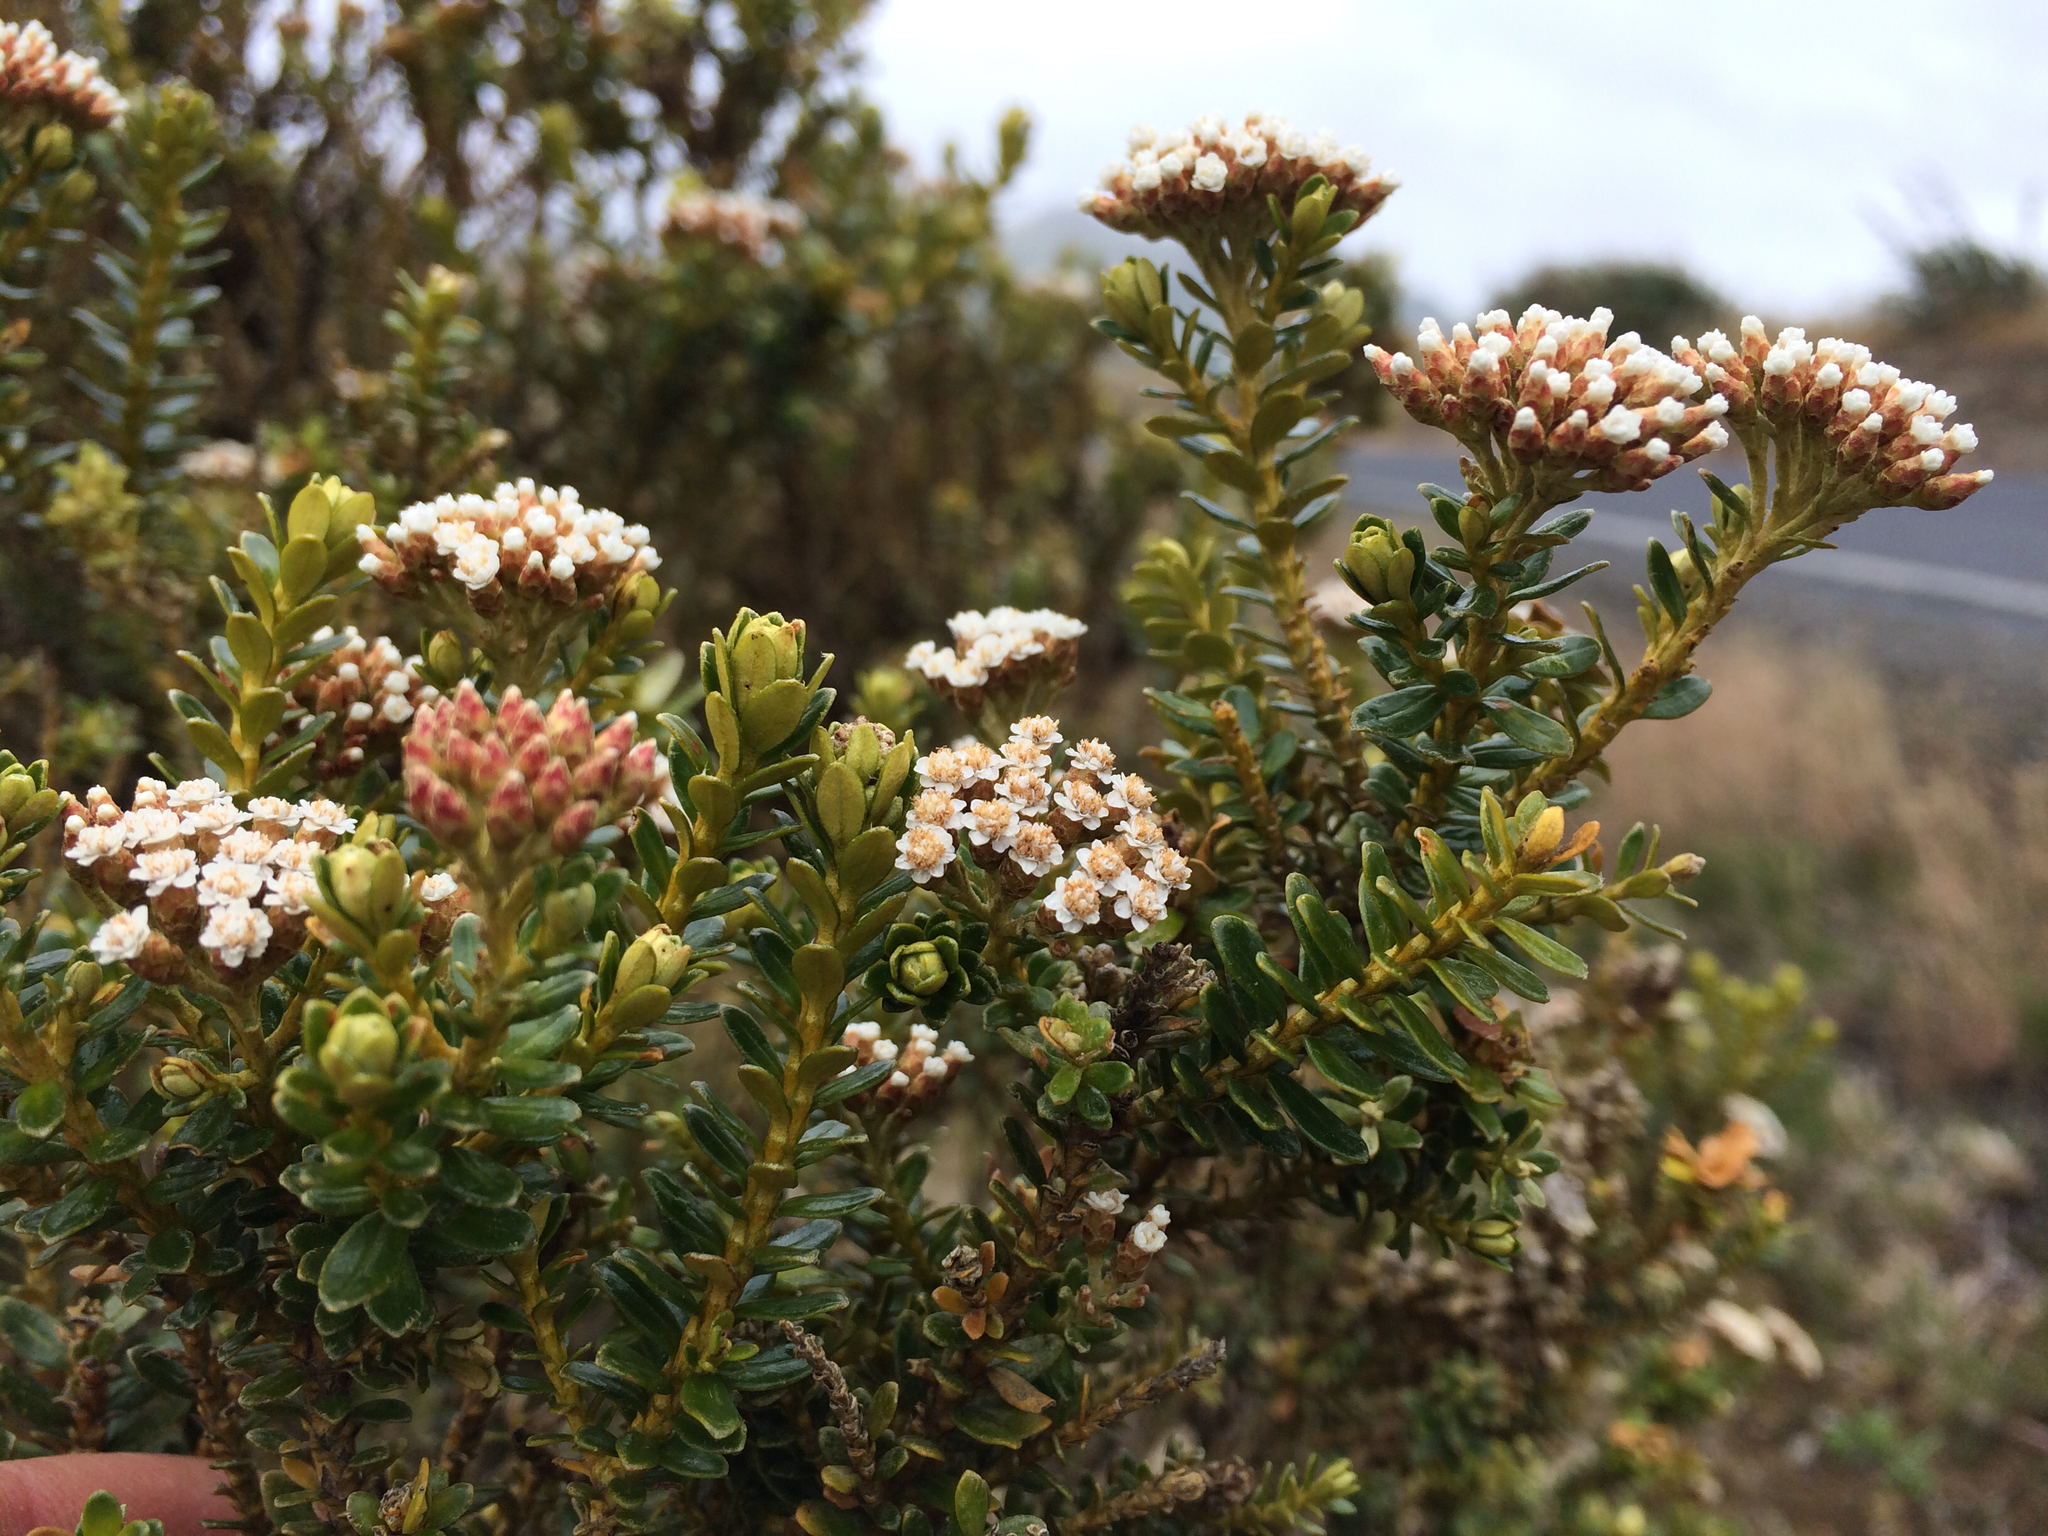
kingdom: Plantae
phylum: Tracheophyta
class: Magnoliopsida
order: Asterales
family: Asteraceae
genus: Ozothamnus
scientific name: Ozothamnus leptophyllus
